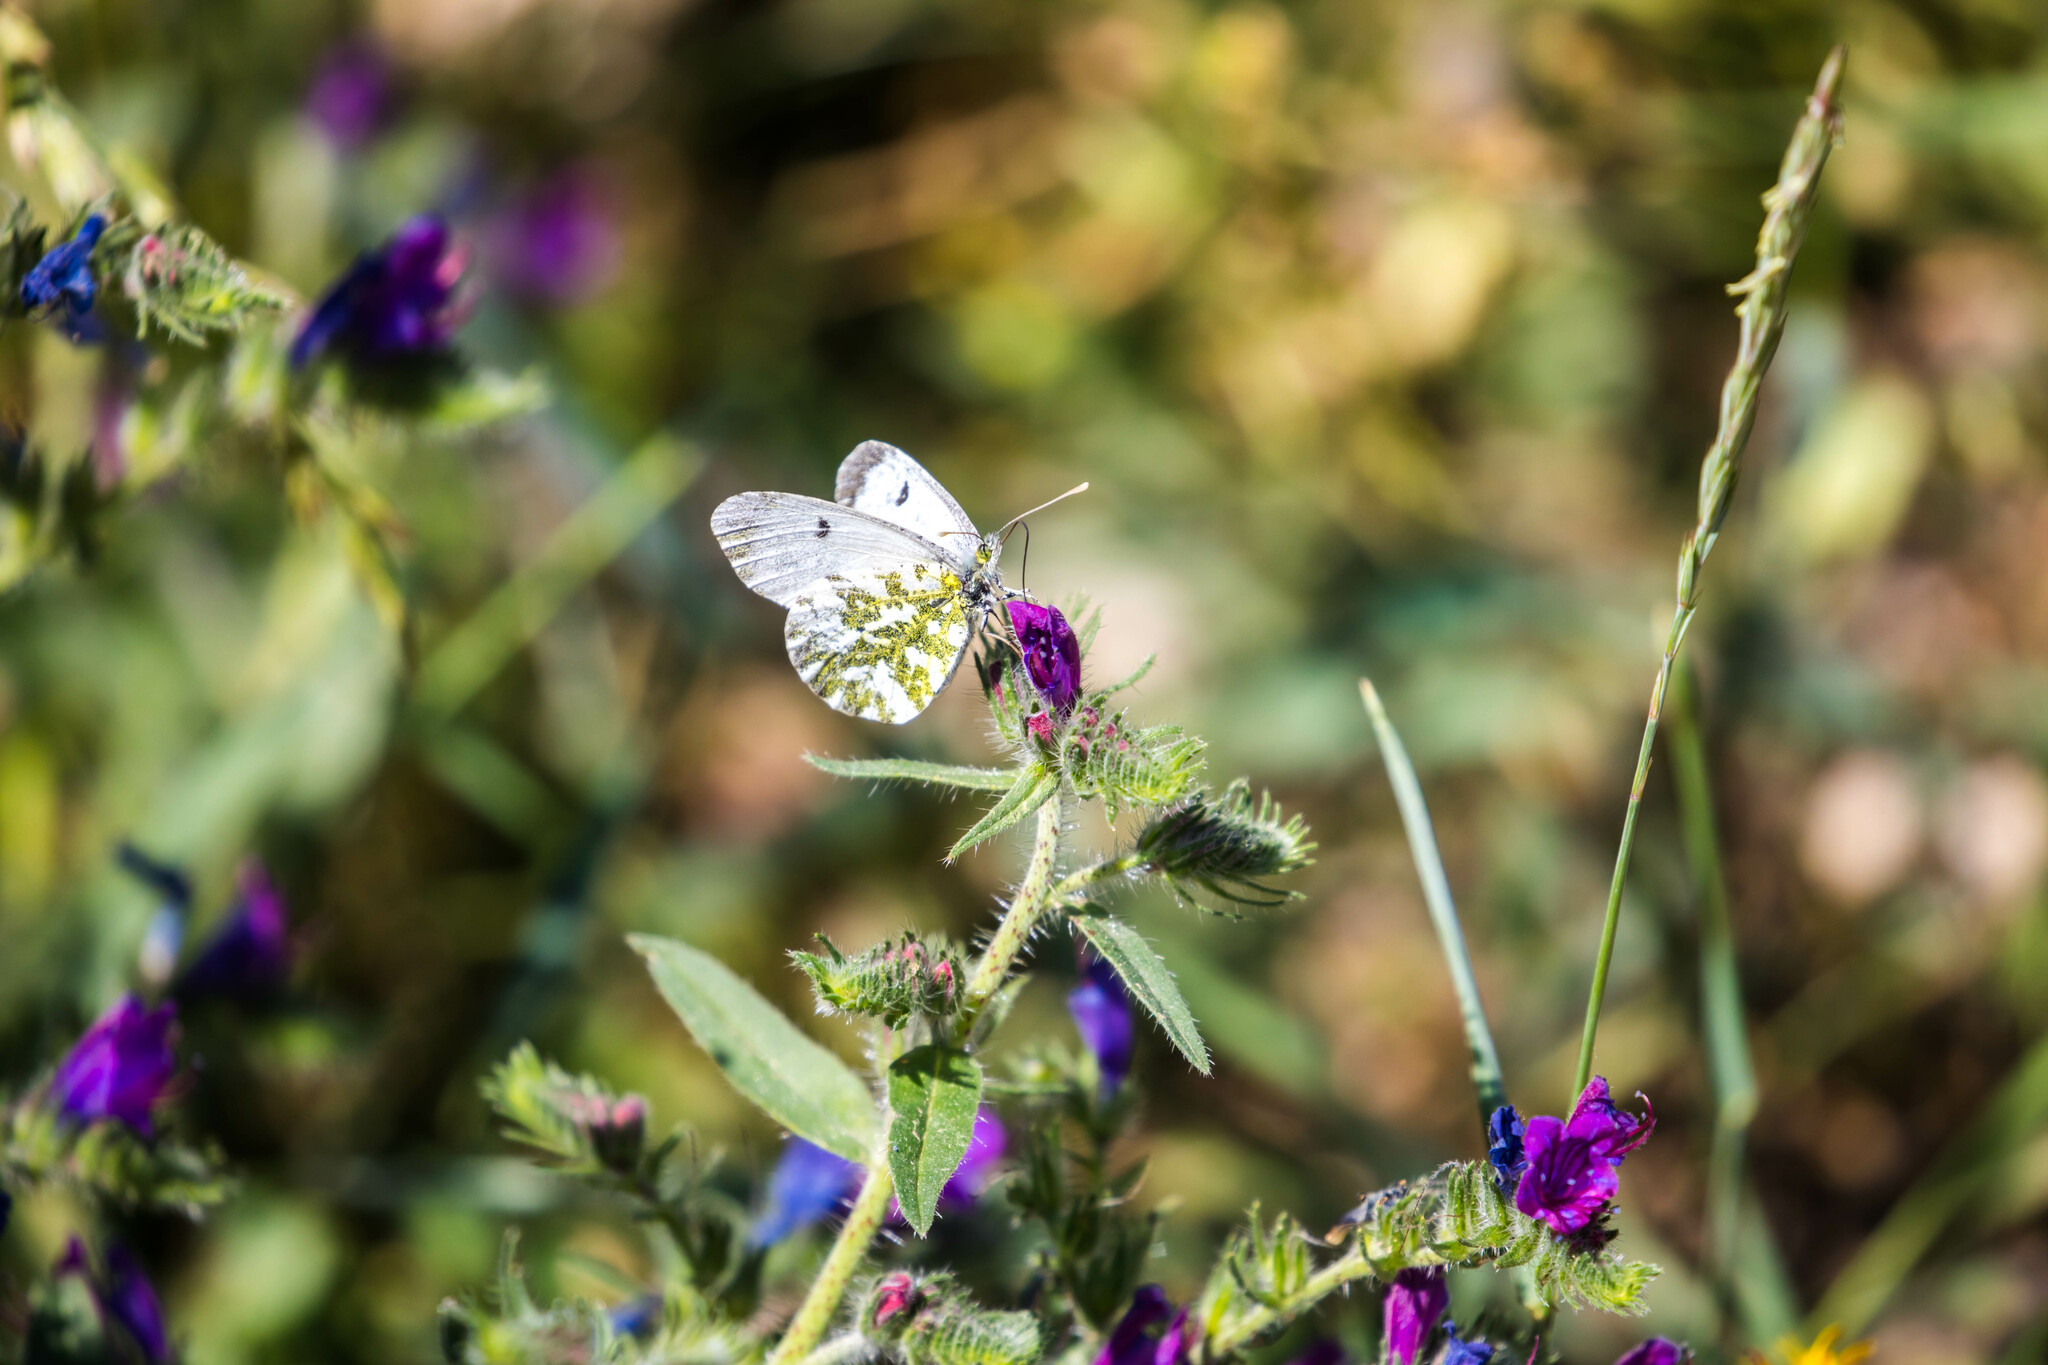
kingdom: Animalia
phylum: Arthropoda
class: Insecta
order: Lepidoptera
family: Pieridae
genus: Anthocharis
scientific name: Anthocharis cardamines
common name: Orange-tip
